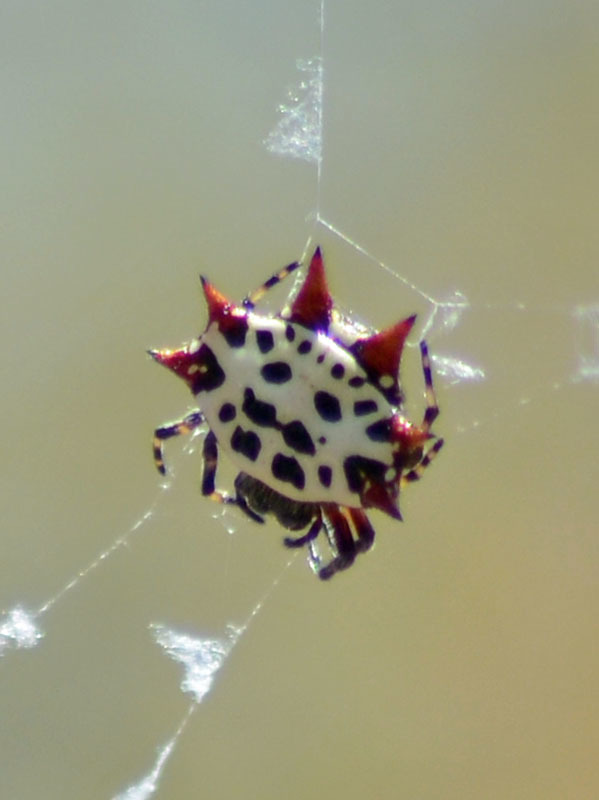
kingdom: Animalia
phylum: Arthropoda
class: Arachnida
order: Araneae
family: Araneidae
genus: Gasteracantha
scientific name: Gasteracantha cancriformis
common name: Orb weavers
